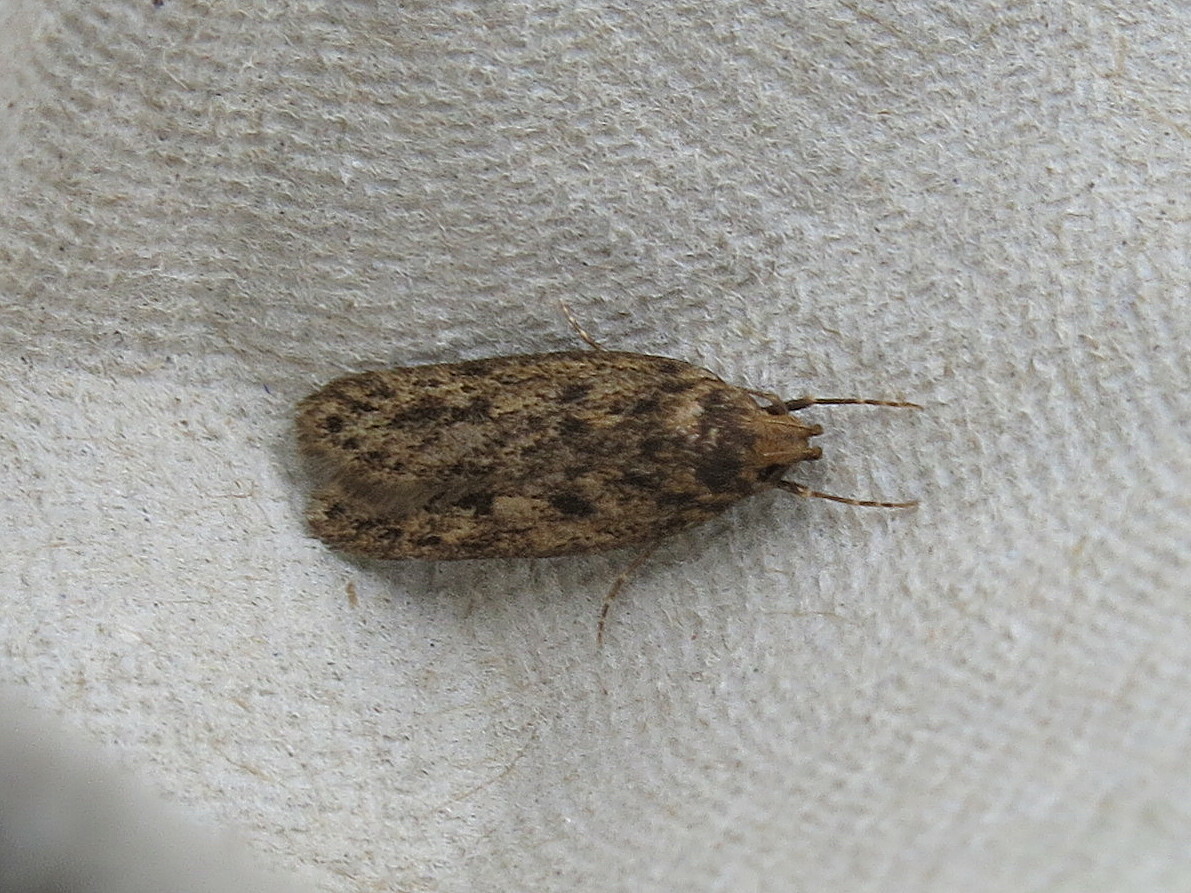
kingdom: Animalia
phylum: Arthropoda
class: Insecta
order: Lepidoptera
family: Oecophoridae
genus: Hofmannophila
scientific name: Hofmannophila pseudospretella
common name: Brown house moth
